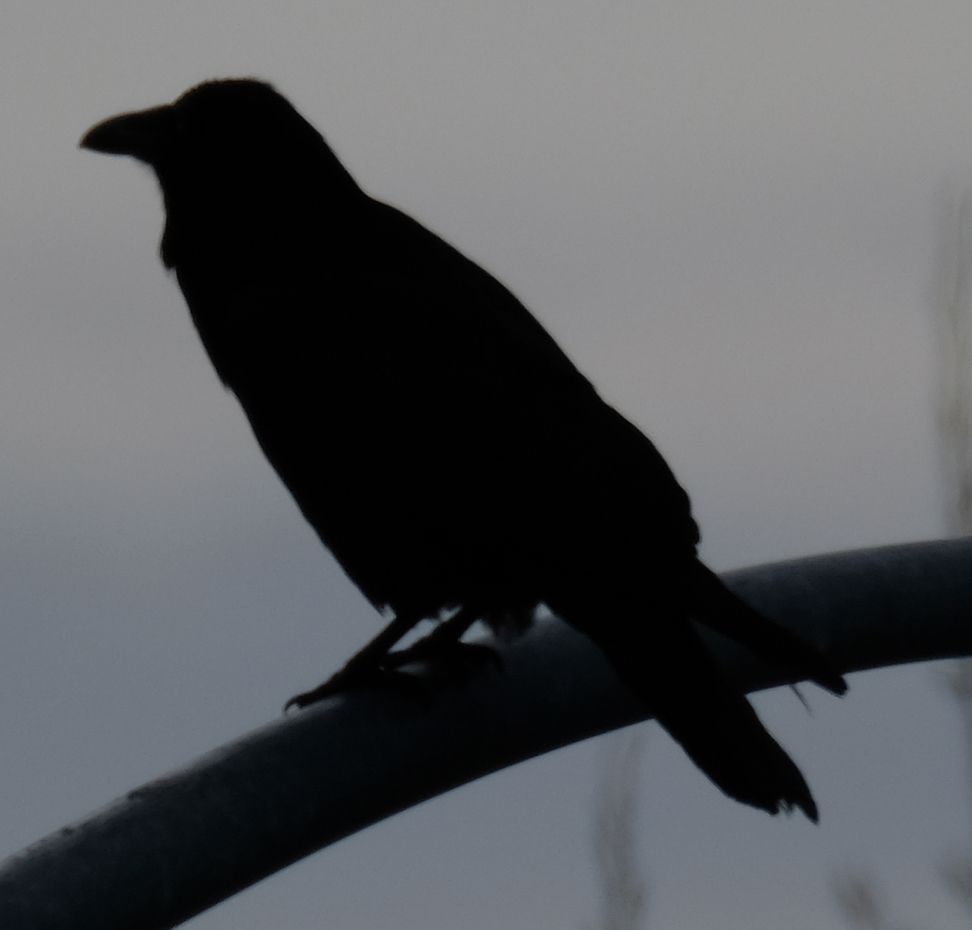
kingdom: Animalia
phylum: Chordata
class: Aves
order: Passeriformes
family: Corvidae
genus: Corvus
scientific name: Corvus corax
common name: Common raven
